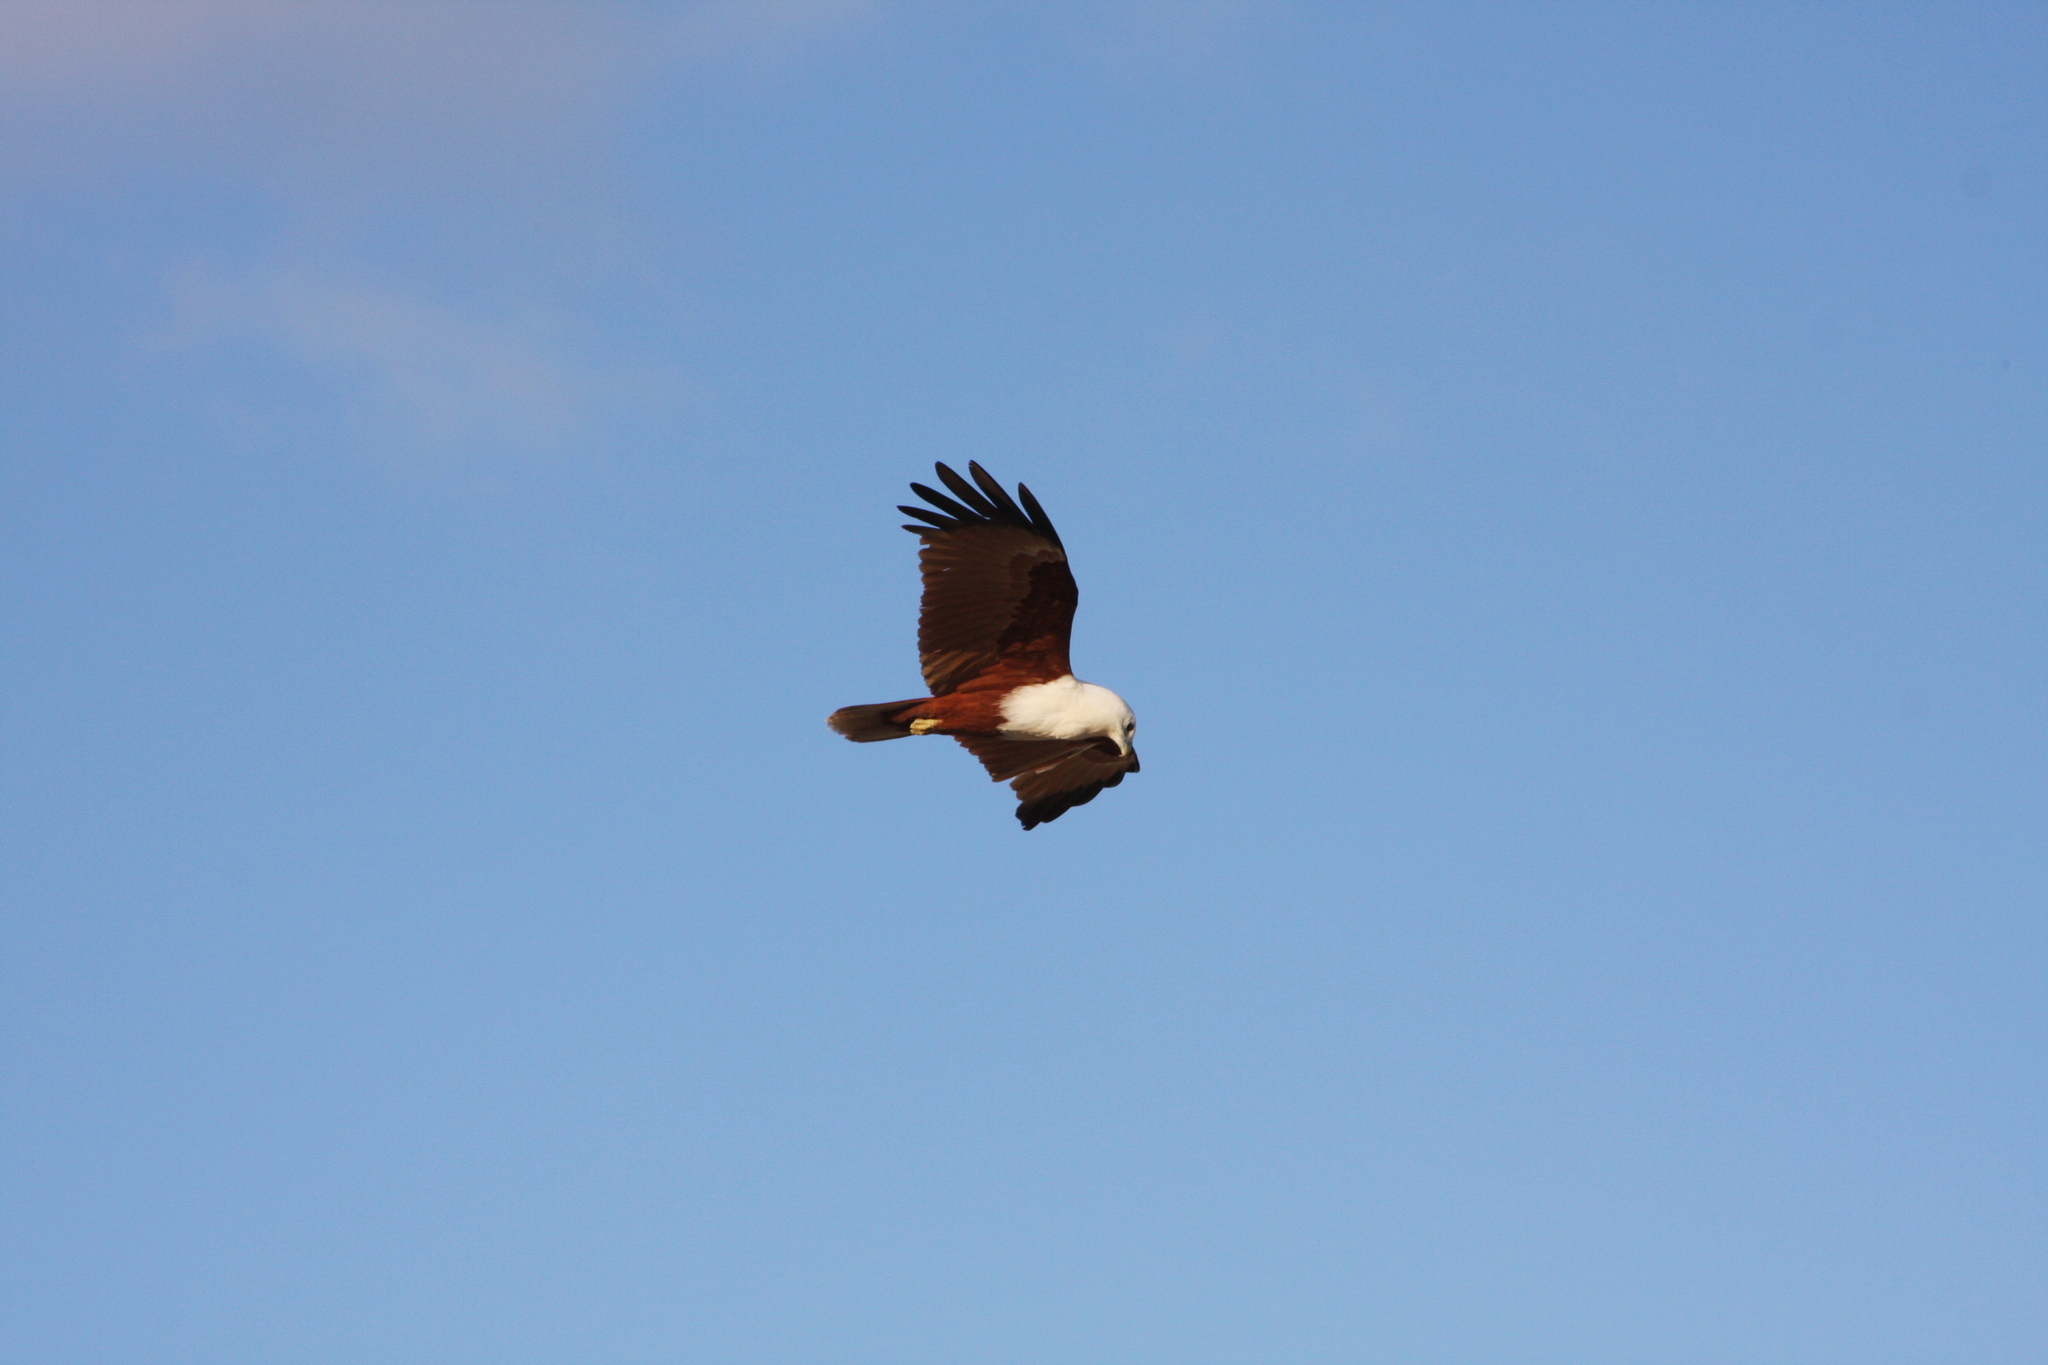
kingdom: Animalia
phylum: Chordata
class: Aves
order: Accipitriformes
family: Accipitridae
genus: Haliastur
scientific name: Haliastur indus
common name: Brahminy kite
